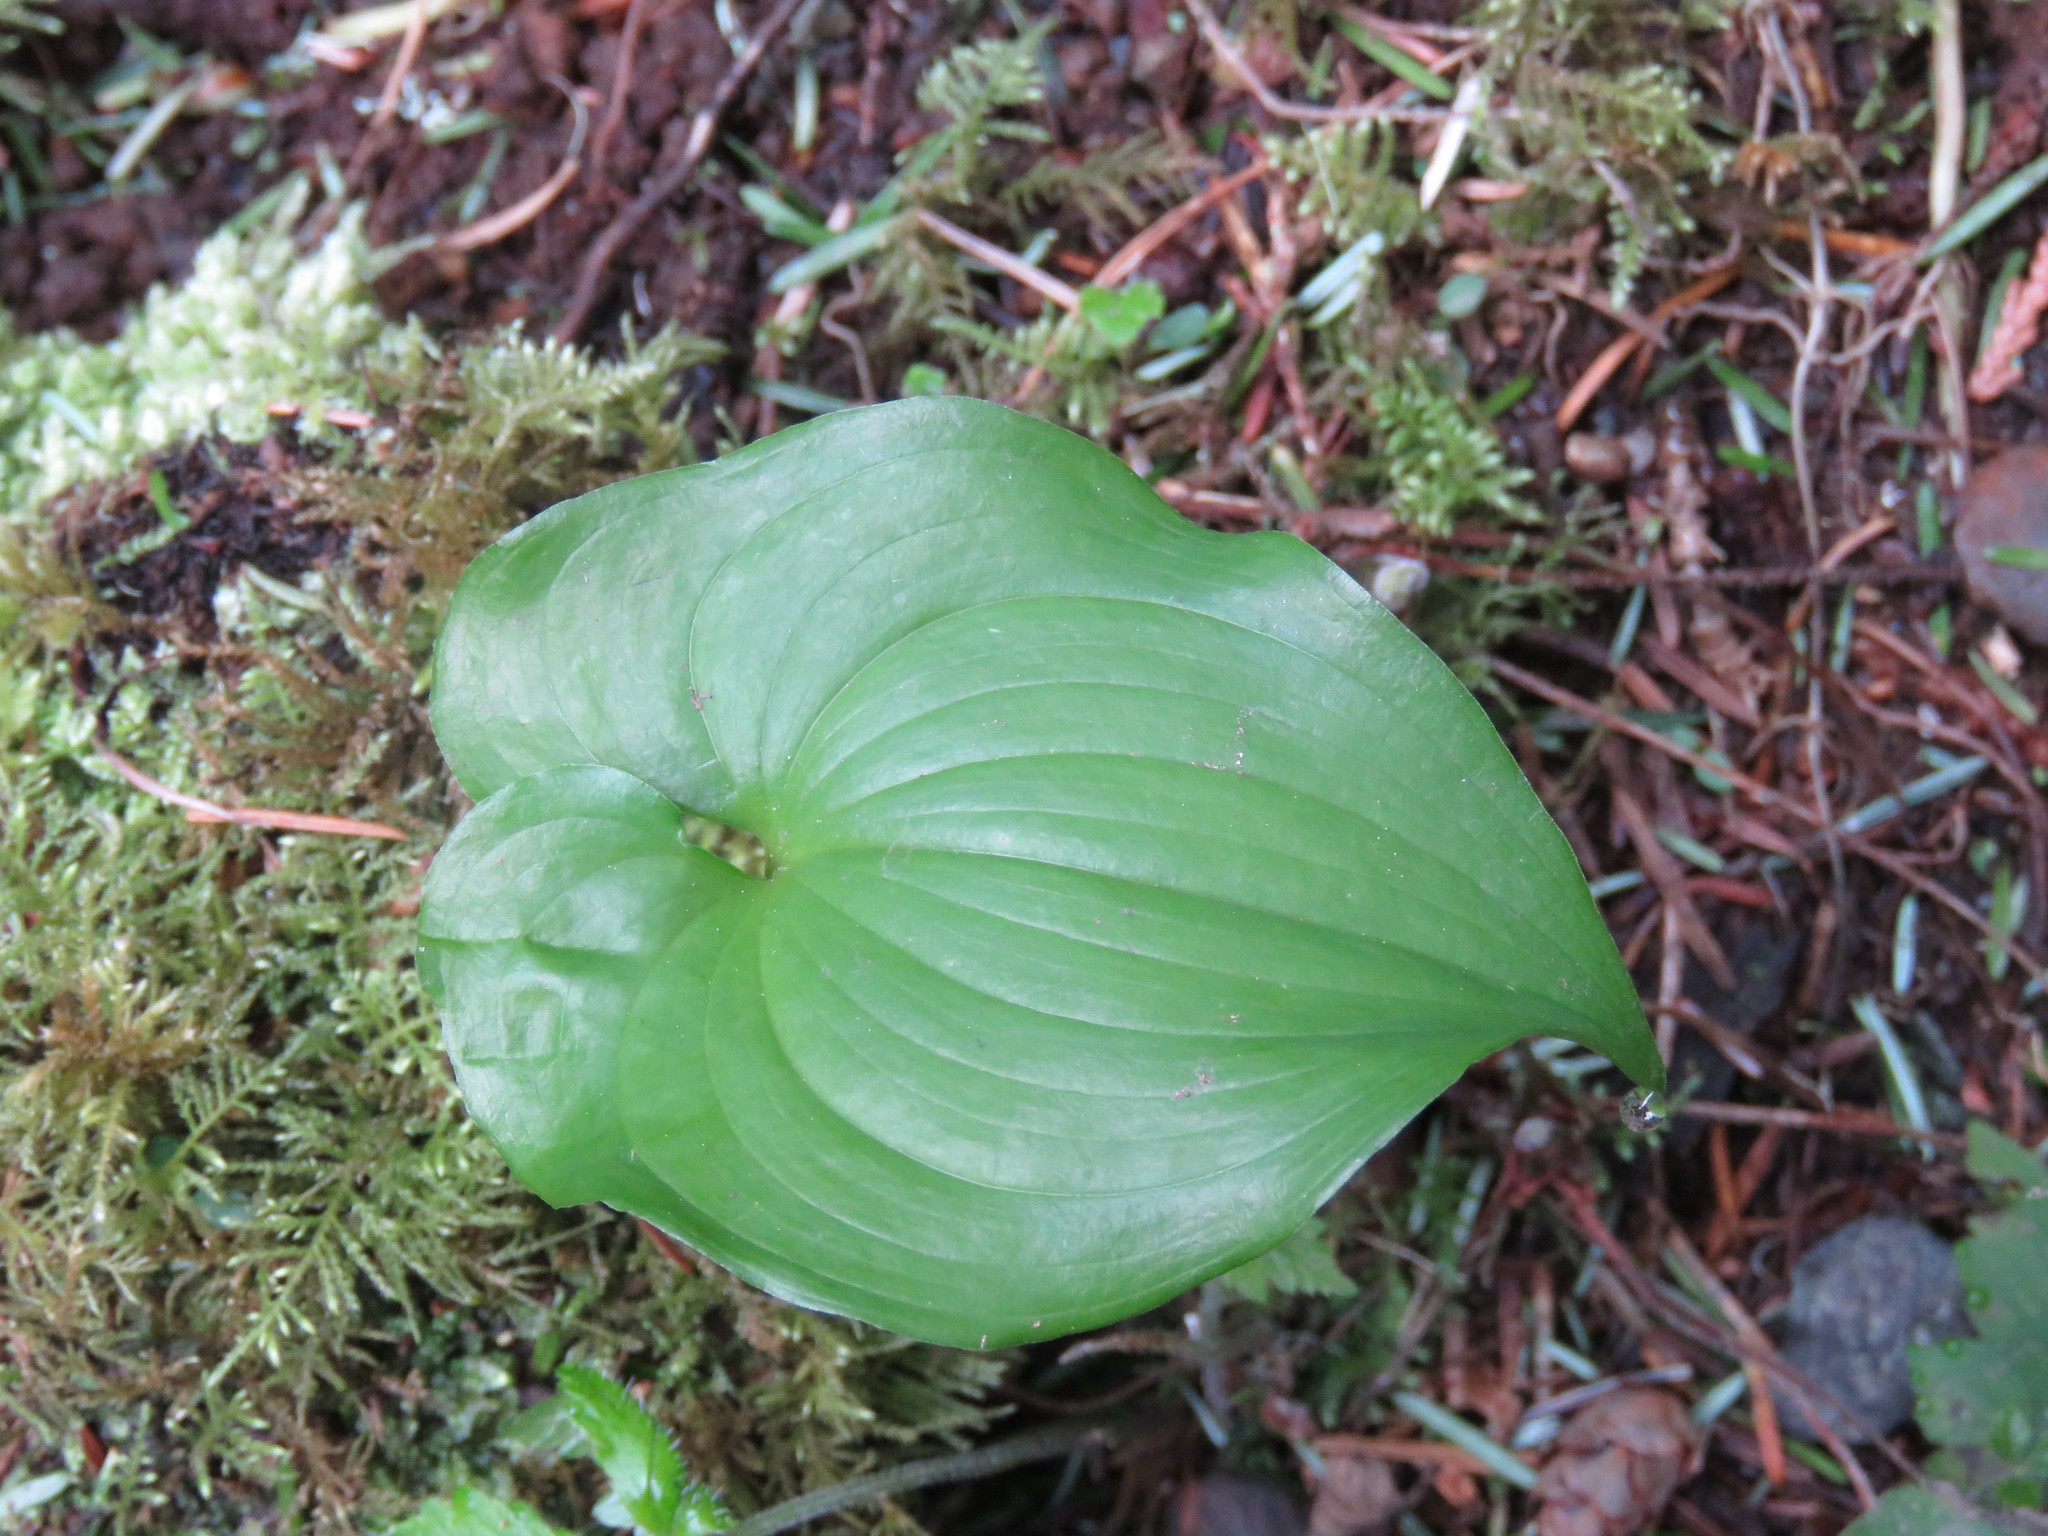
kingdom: Plantae
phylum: Tracheophyta
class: Liliopsida
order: Asparagales
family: Asparagaceae
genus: Maianthemum
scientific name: Maianthemum dilatatum
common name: False lily-of-the-valley
